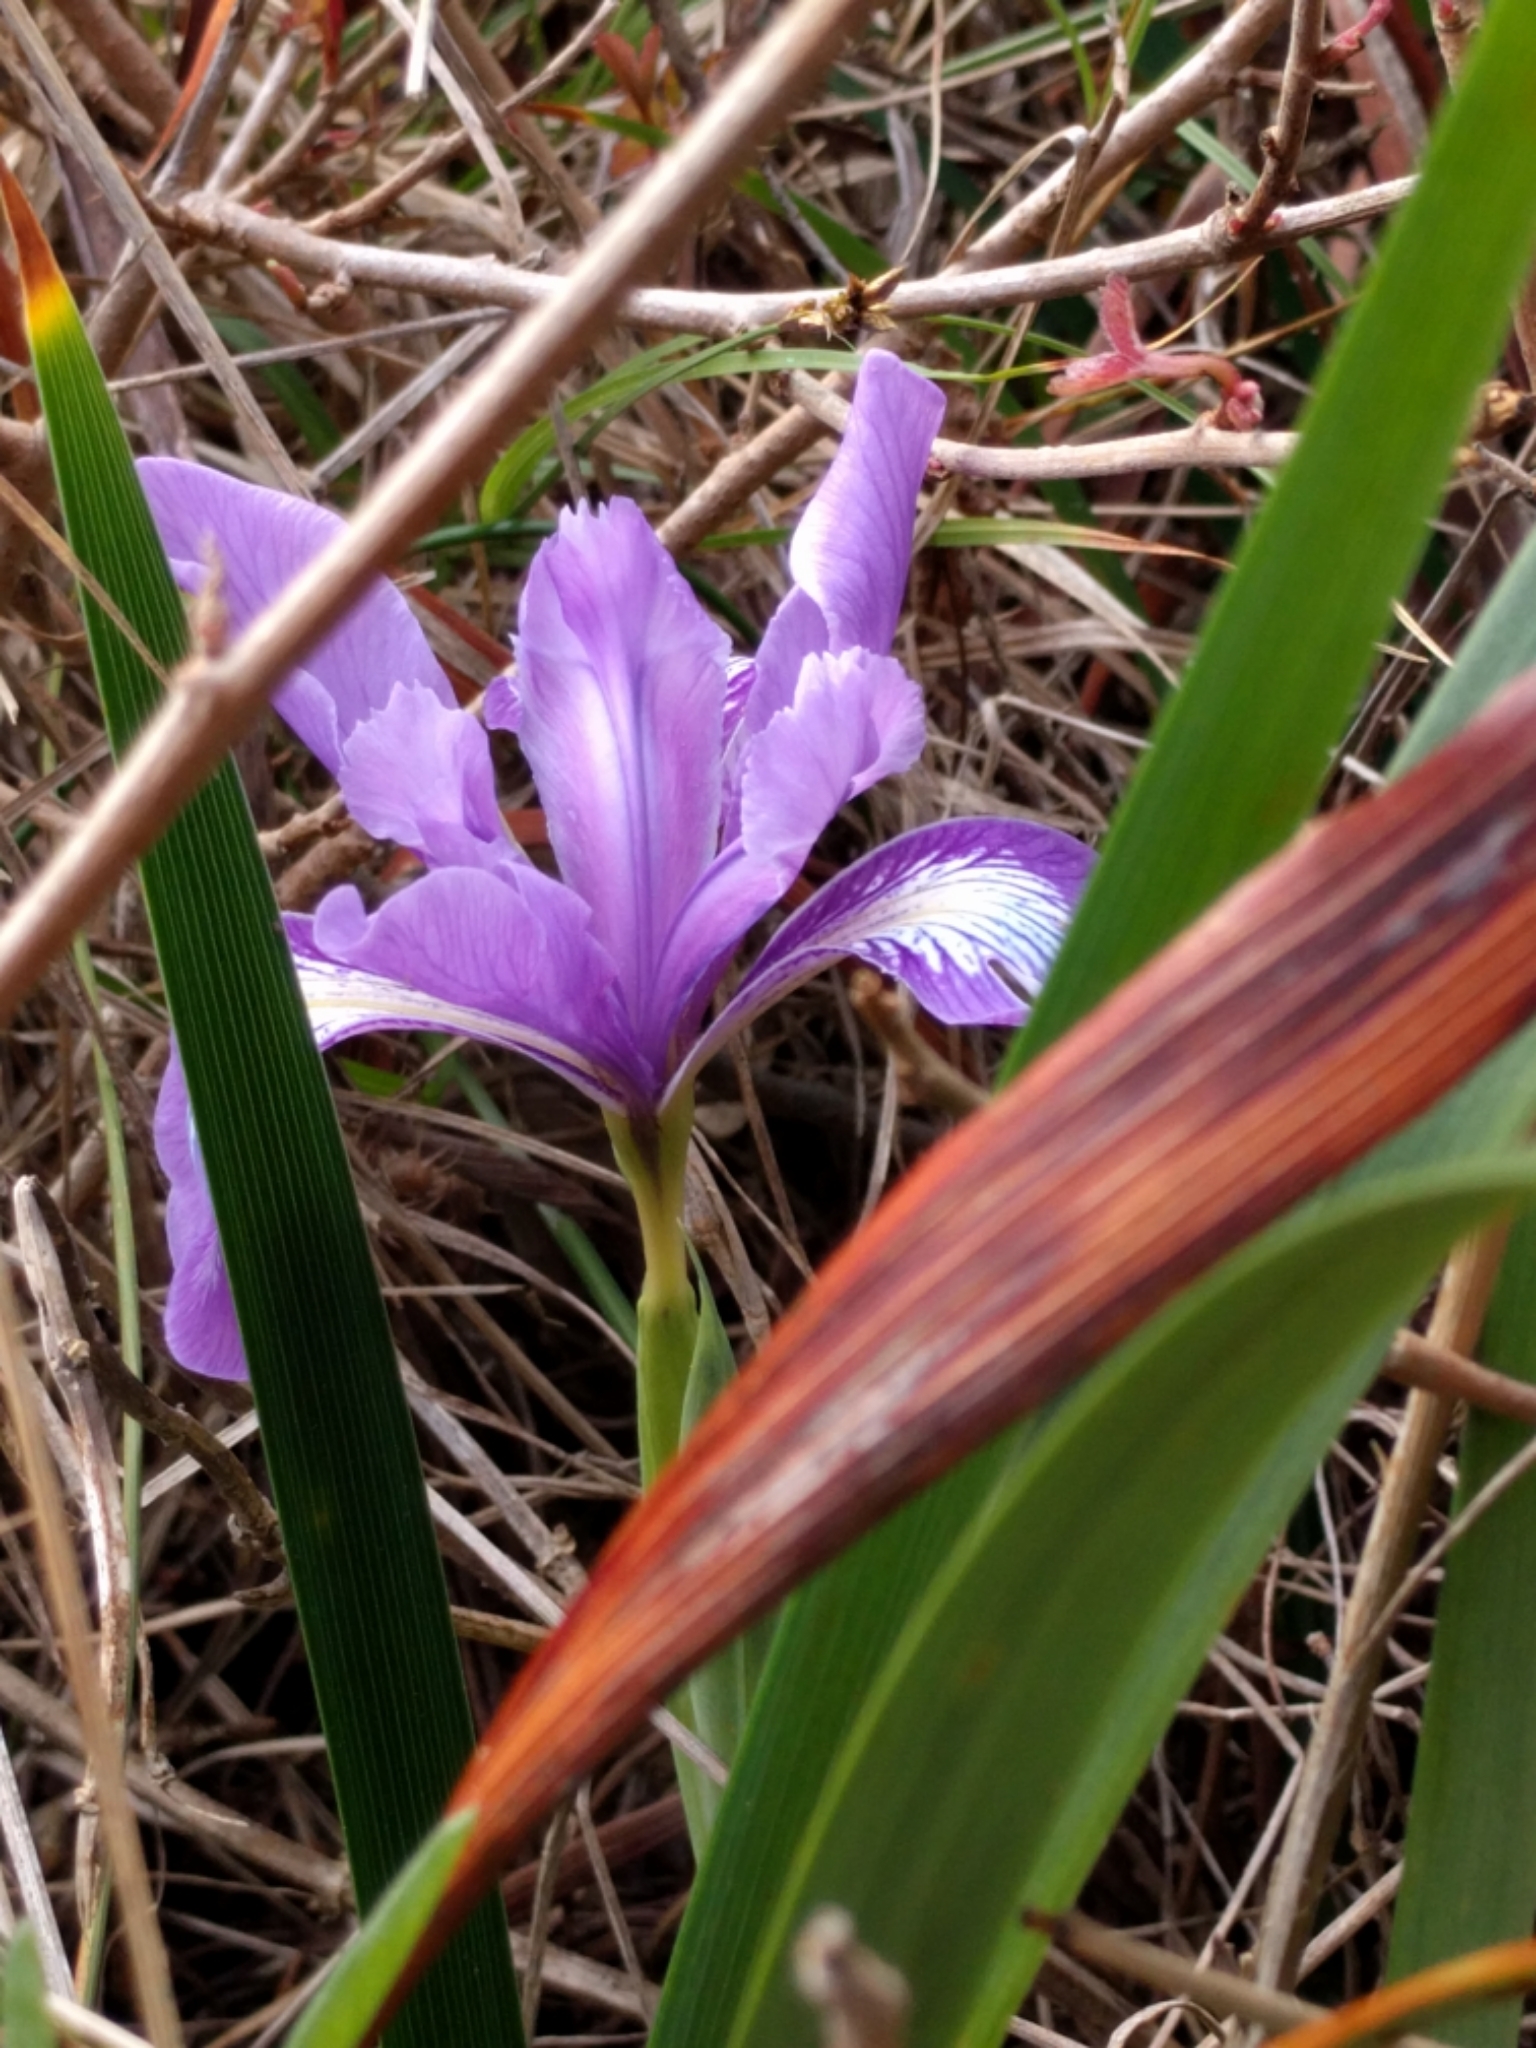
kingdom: Plantae
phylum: Tracheophyta
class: Liliopsida
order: Asparagales
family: Iridaceae
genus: Iris
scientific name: Iris douglasiana
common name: Marin iris
